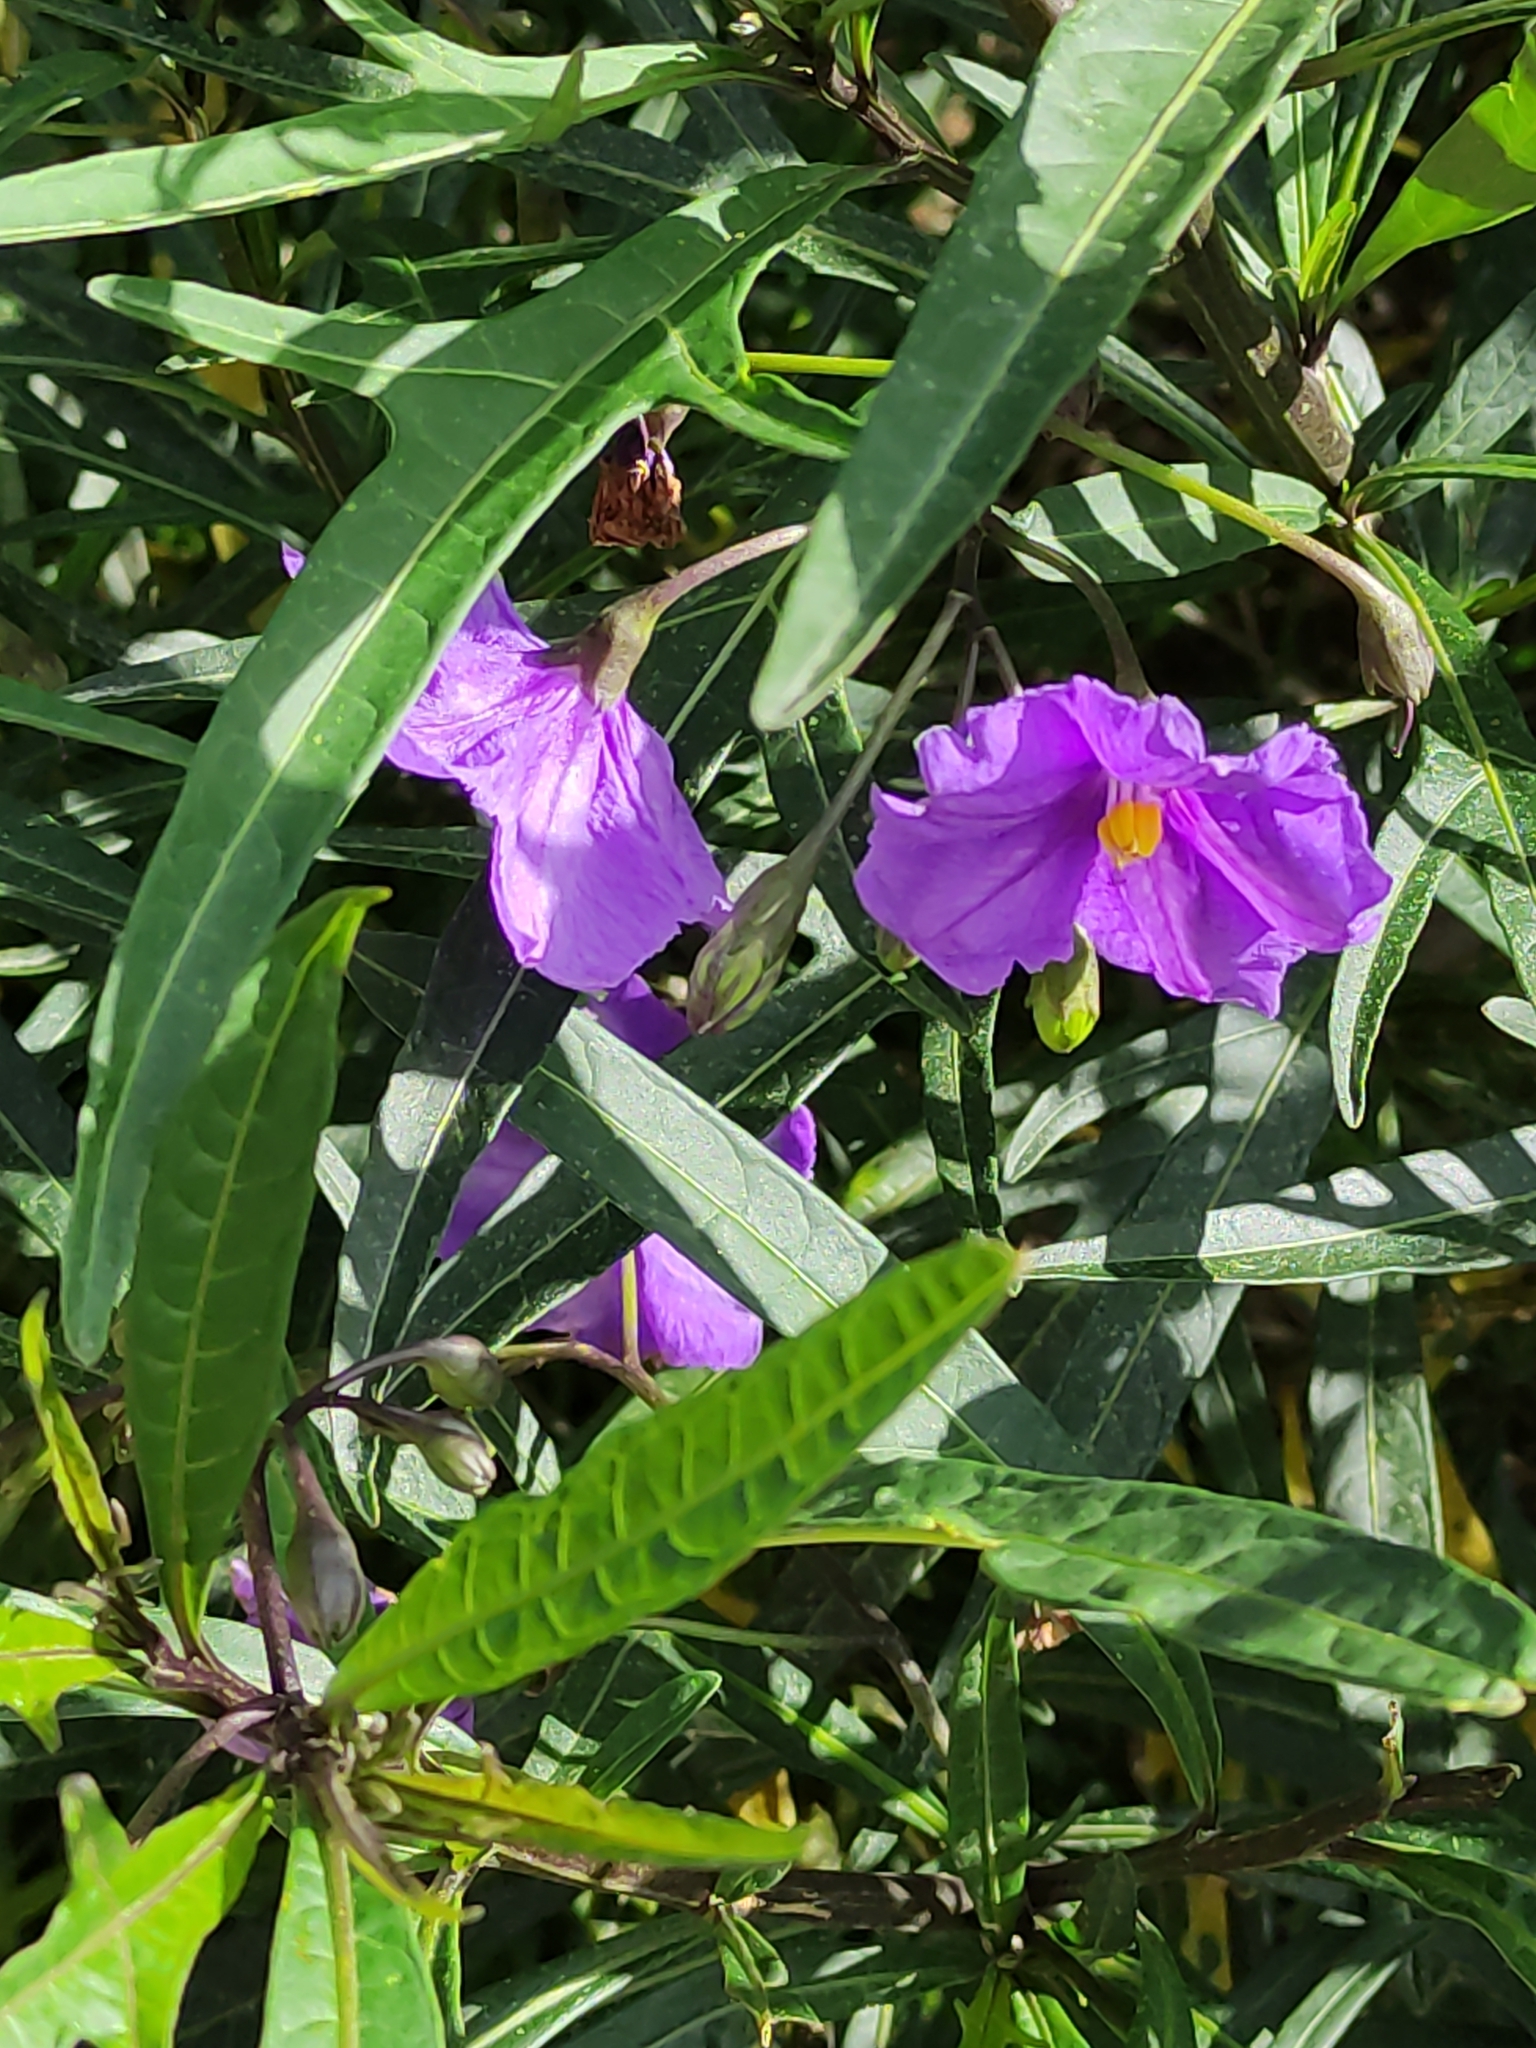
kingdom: Plantae
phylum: Tracheophyta
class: Magnoliopsida
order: Solanales
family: Solanaceae
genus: Solanum
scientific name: Solanum laciniatum
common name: Kangaroo-apple
